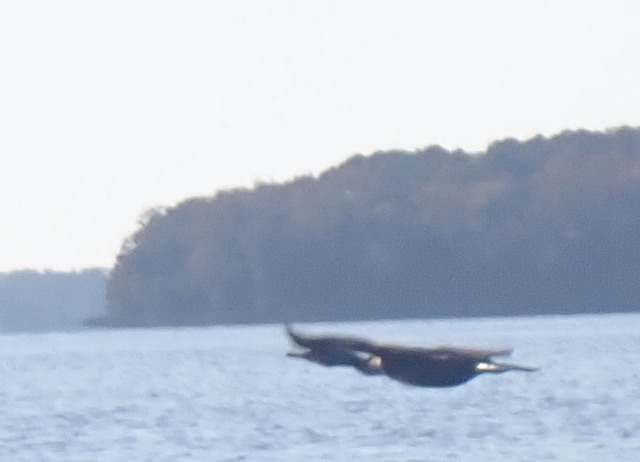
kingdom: Animalia
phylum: Chordata
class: Aves
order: Suliformes
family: Phalacrocoracidae
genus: Phalacrocorax
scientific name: Phalacrocorax auritus
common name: Double-crested cormorant
